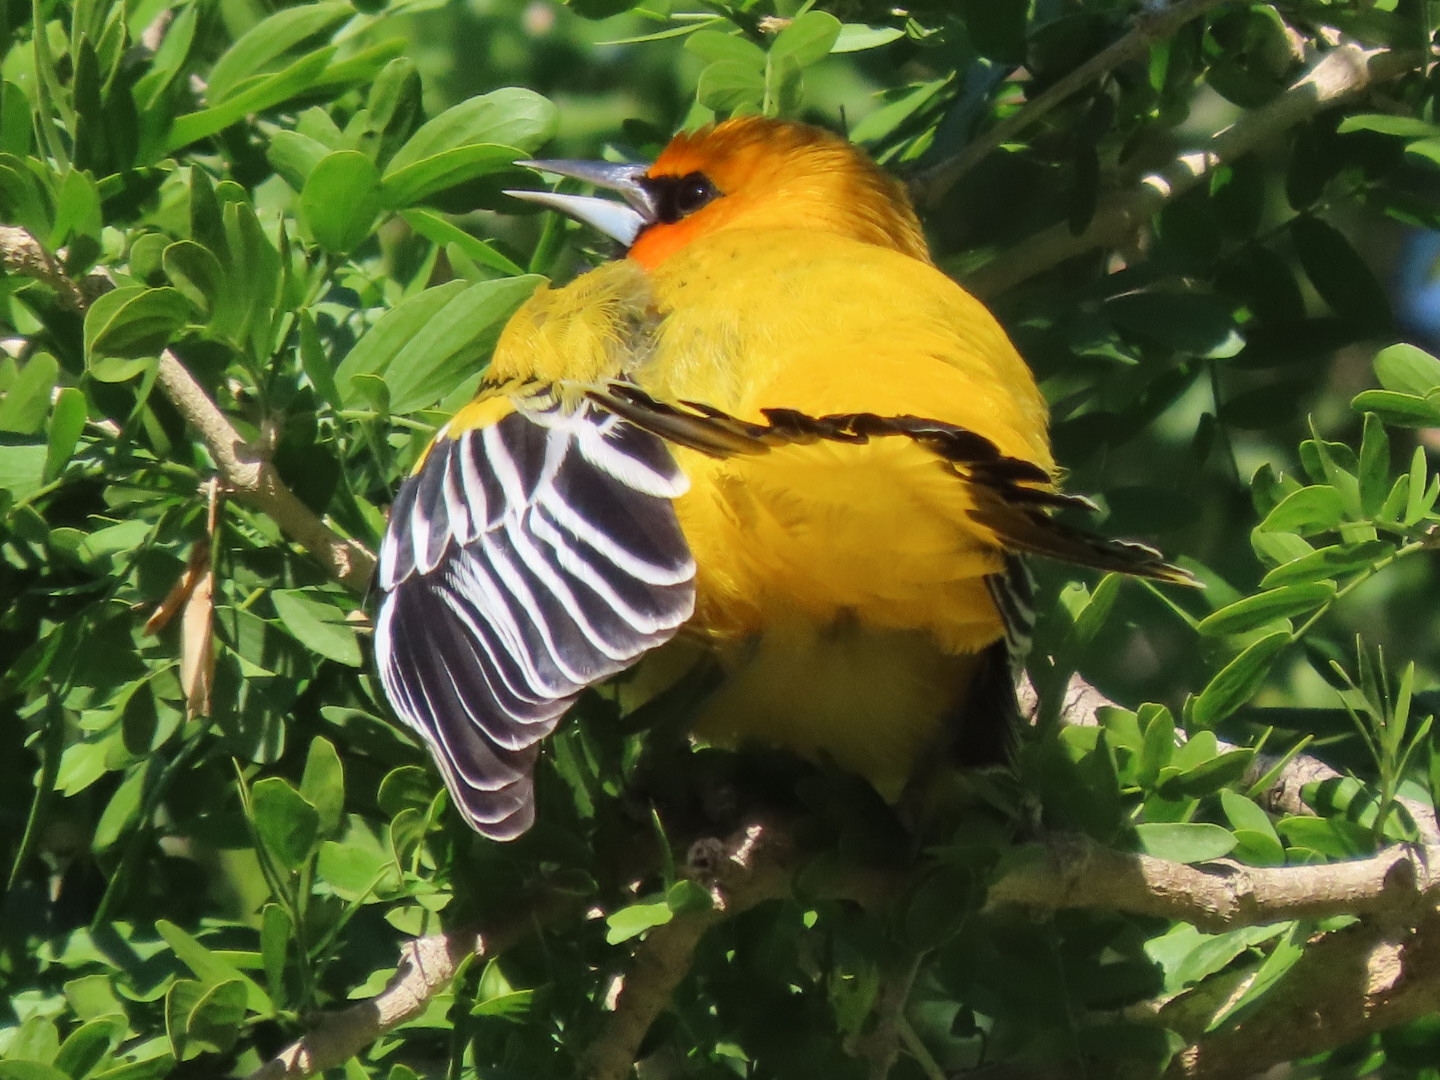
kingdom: Animalia
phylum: Chordata
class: Aves
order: Passeriformes
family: Icteridae
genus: Icterus
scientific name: Icterus pustulatus
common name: Streak-backed oriole
